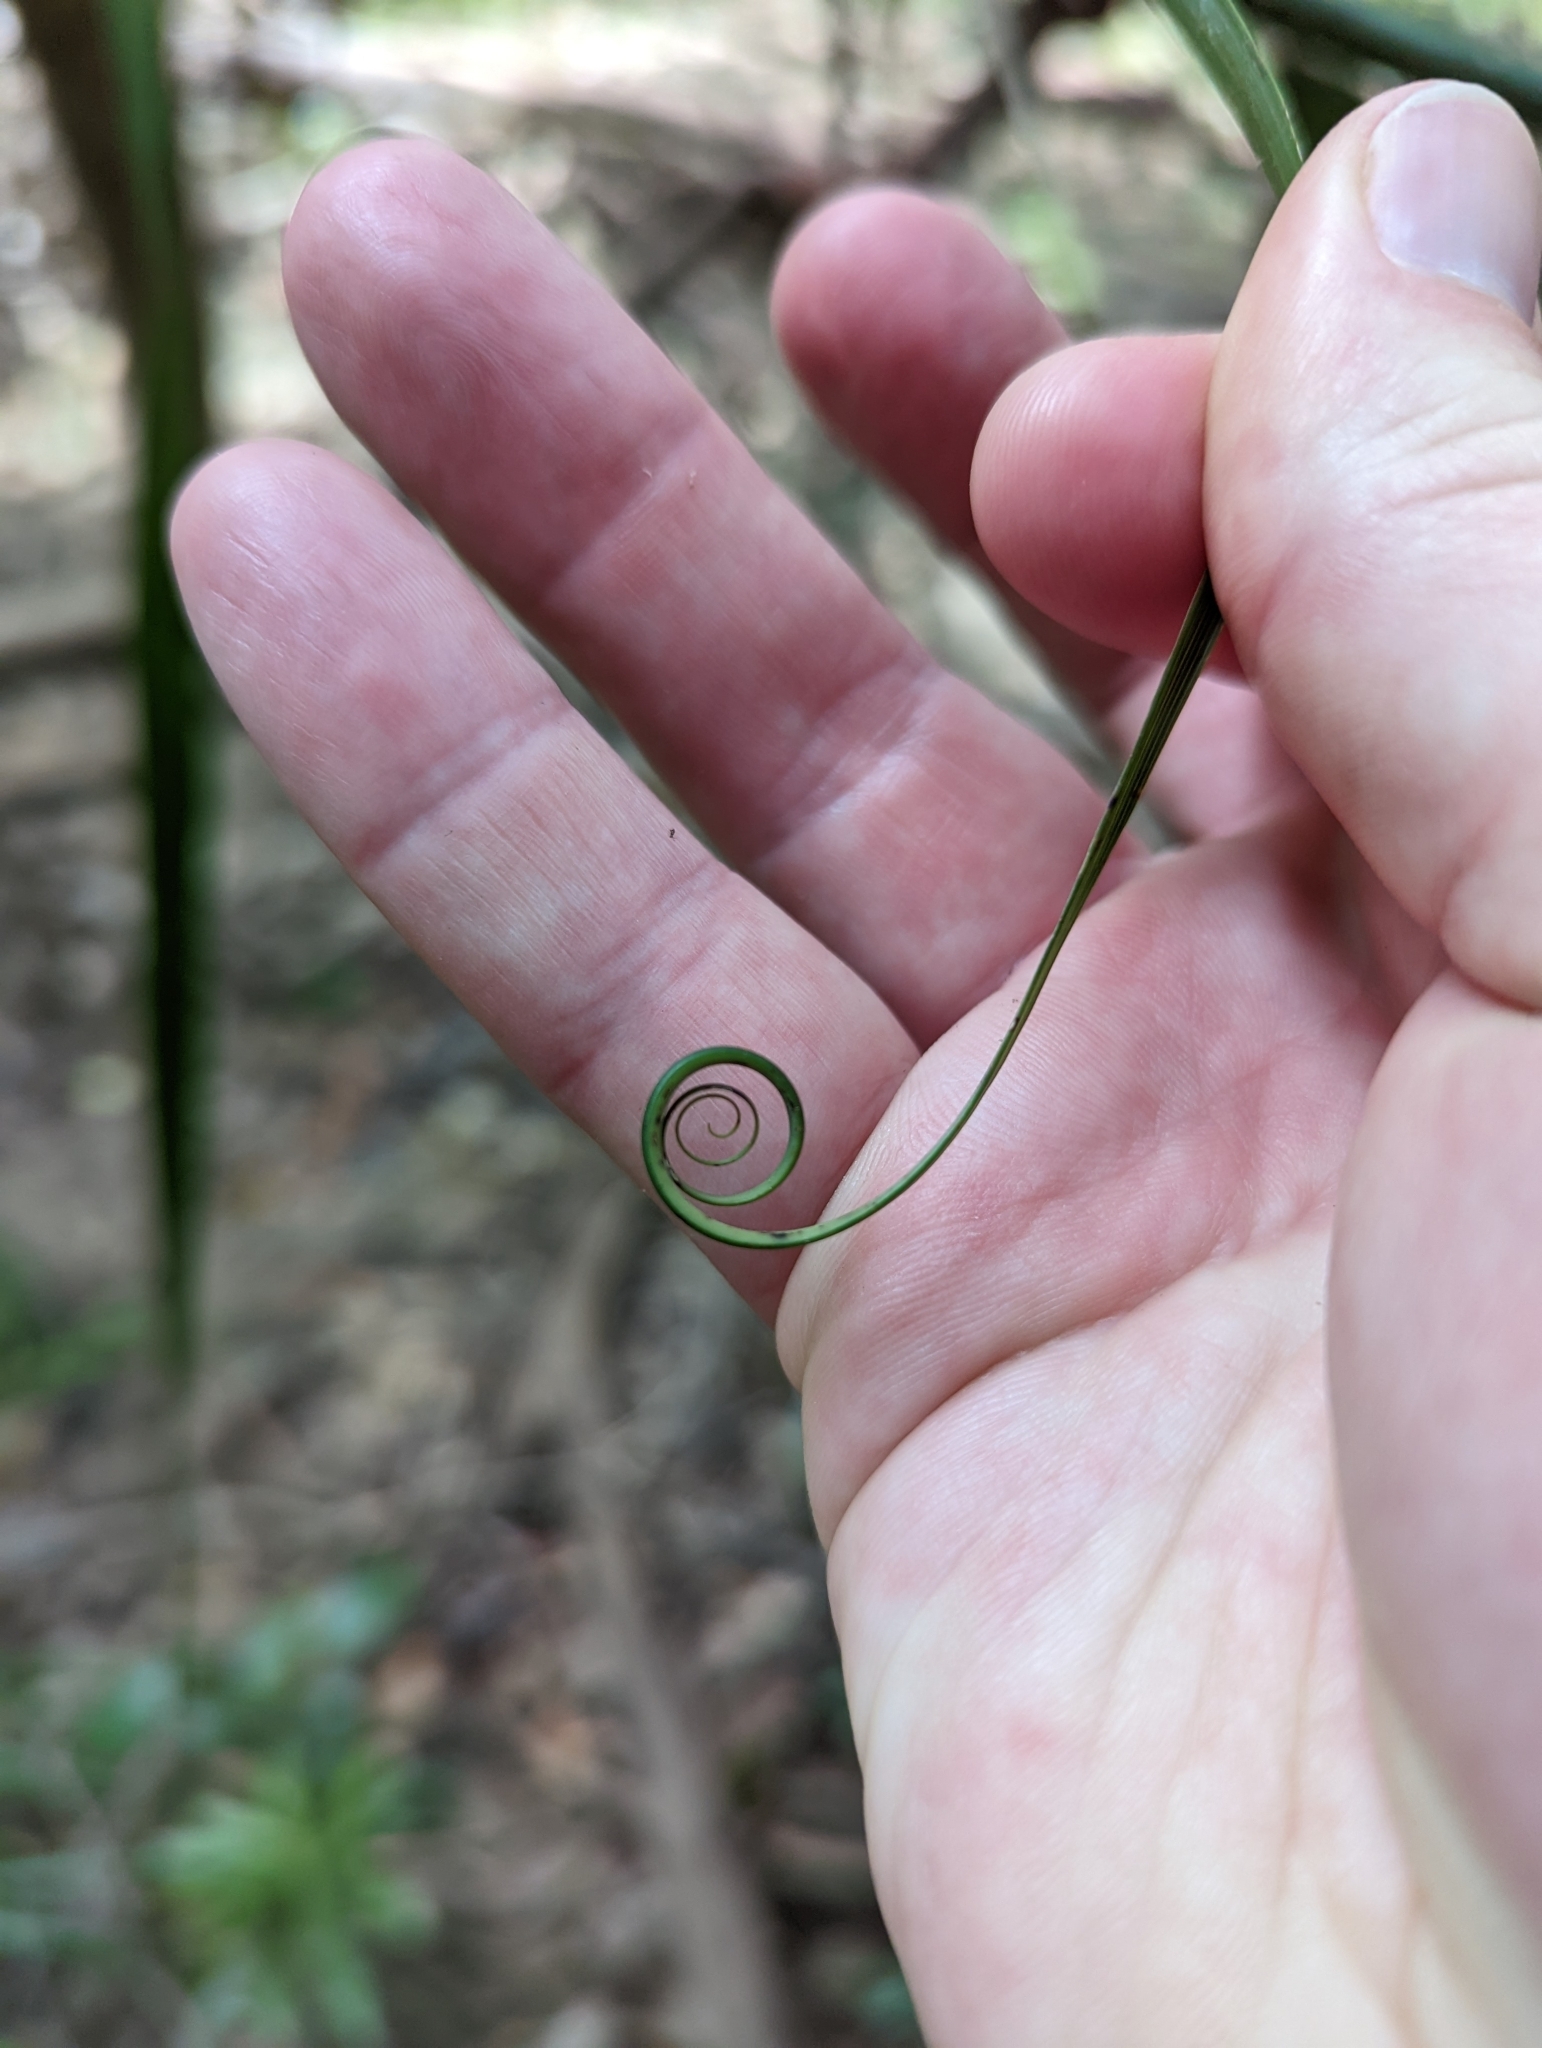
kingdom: Plantae
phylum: Tracheophyta
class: Liliopsida
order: Poales
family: Flagellariaceae
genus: Flagellaria
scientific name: Flagellaria indica
